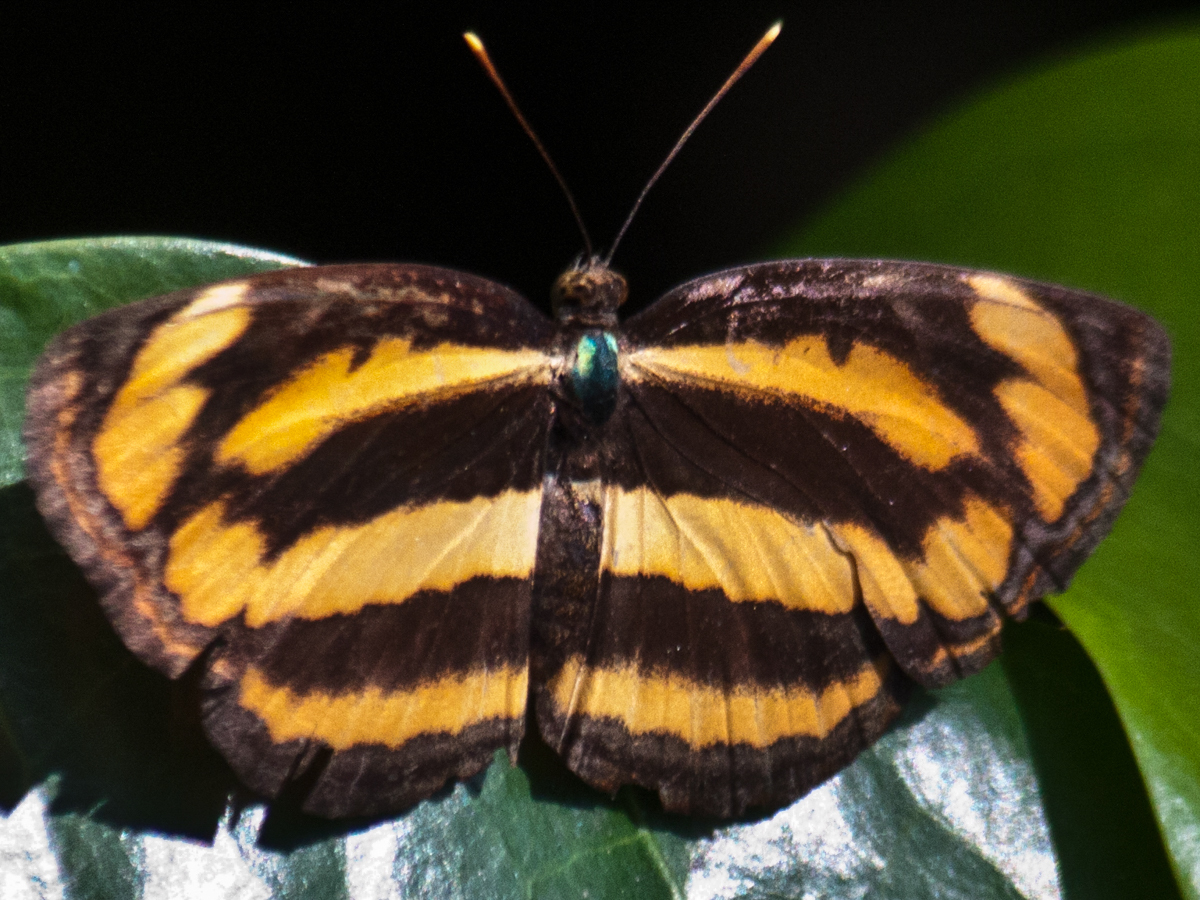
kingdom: Animalia
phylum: Arthropoda
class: Insecta
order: Lepidoptera
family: Nymphalidae
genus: Pantoporia
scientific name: Pantoporia hordonia
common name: Common lascar
